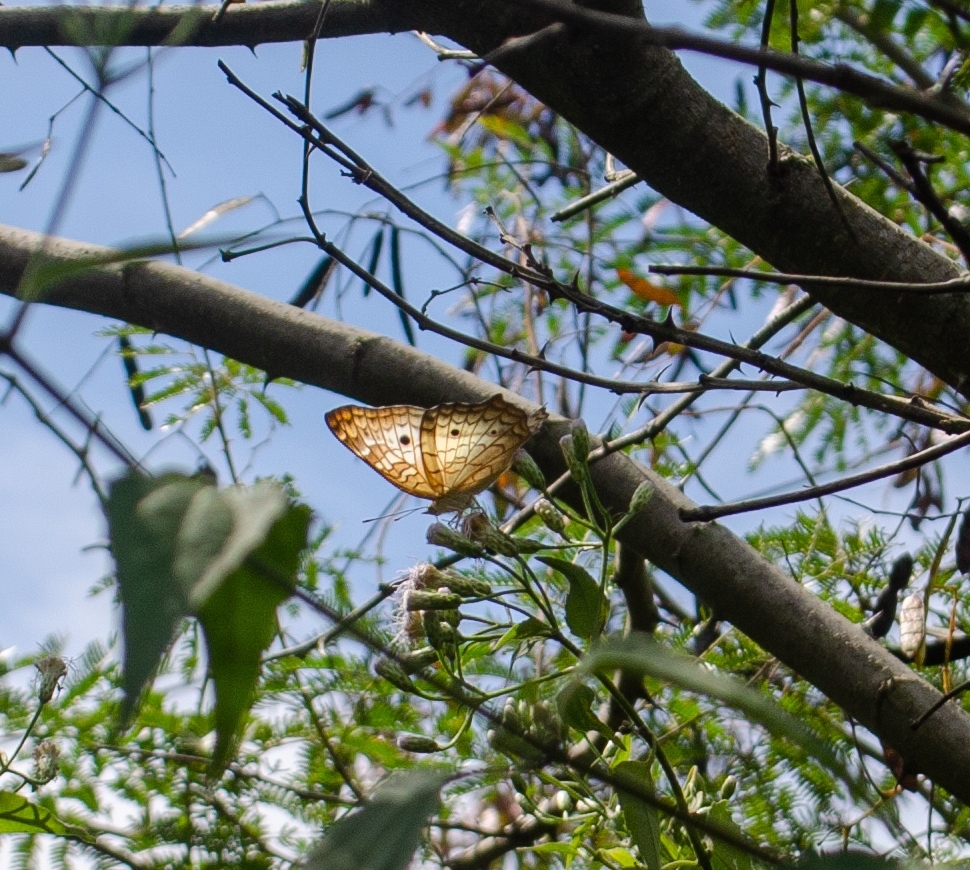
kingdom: Animalia
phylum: Arthropoda
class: Insecta
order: Lepidoptera
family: Nymphalidae
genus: Anartia
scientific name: Anartia jatrophae
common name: White peacock
